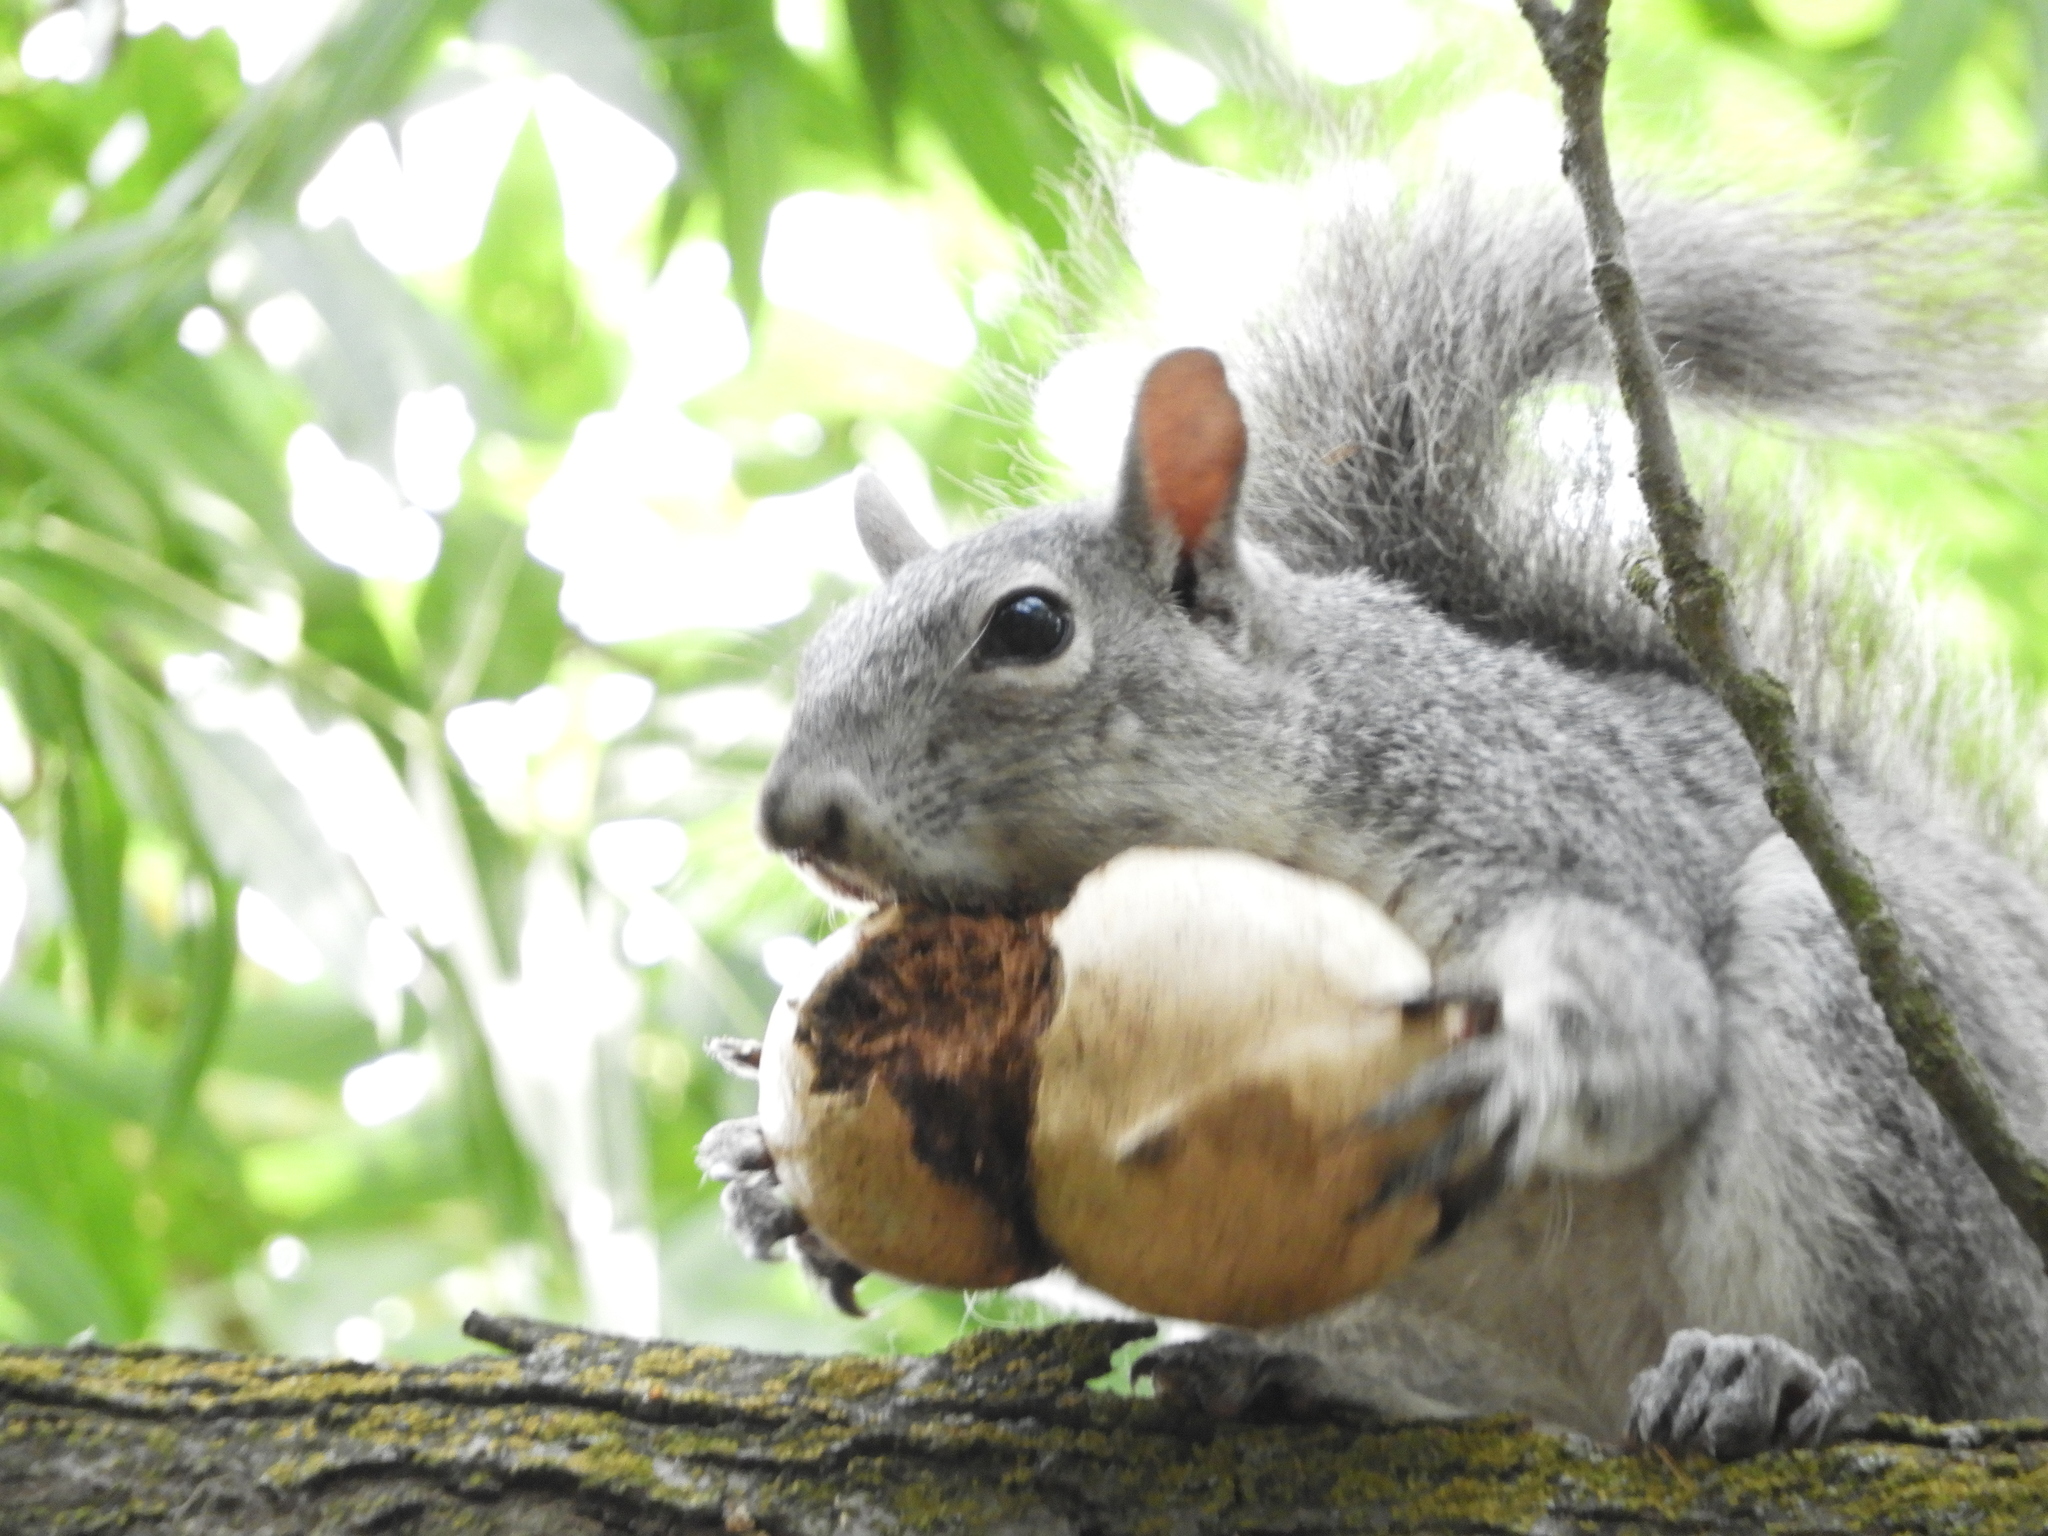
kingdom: Animalia
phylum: Chordata
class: Mammalia
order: Rodentia
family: Sciuridae
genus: Sciurus
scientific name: Sciurus griseus
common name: Western gray squirrel
